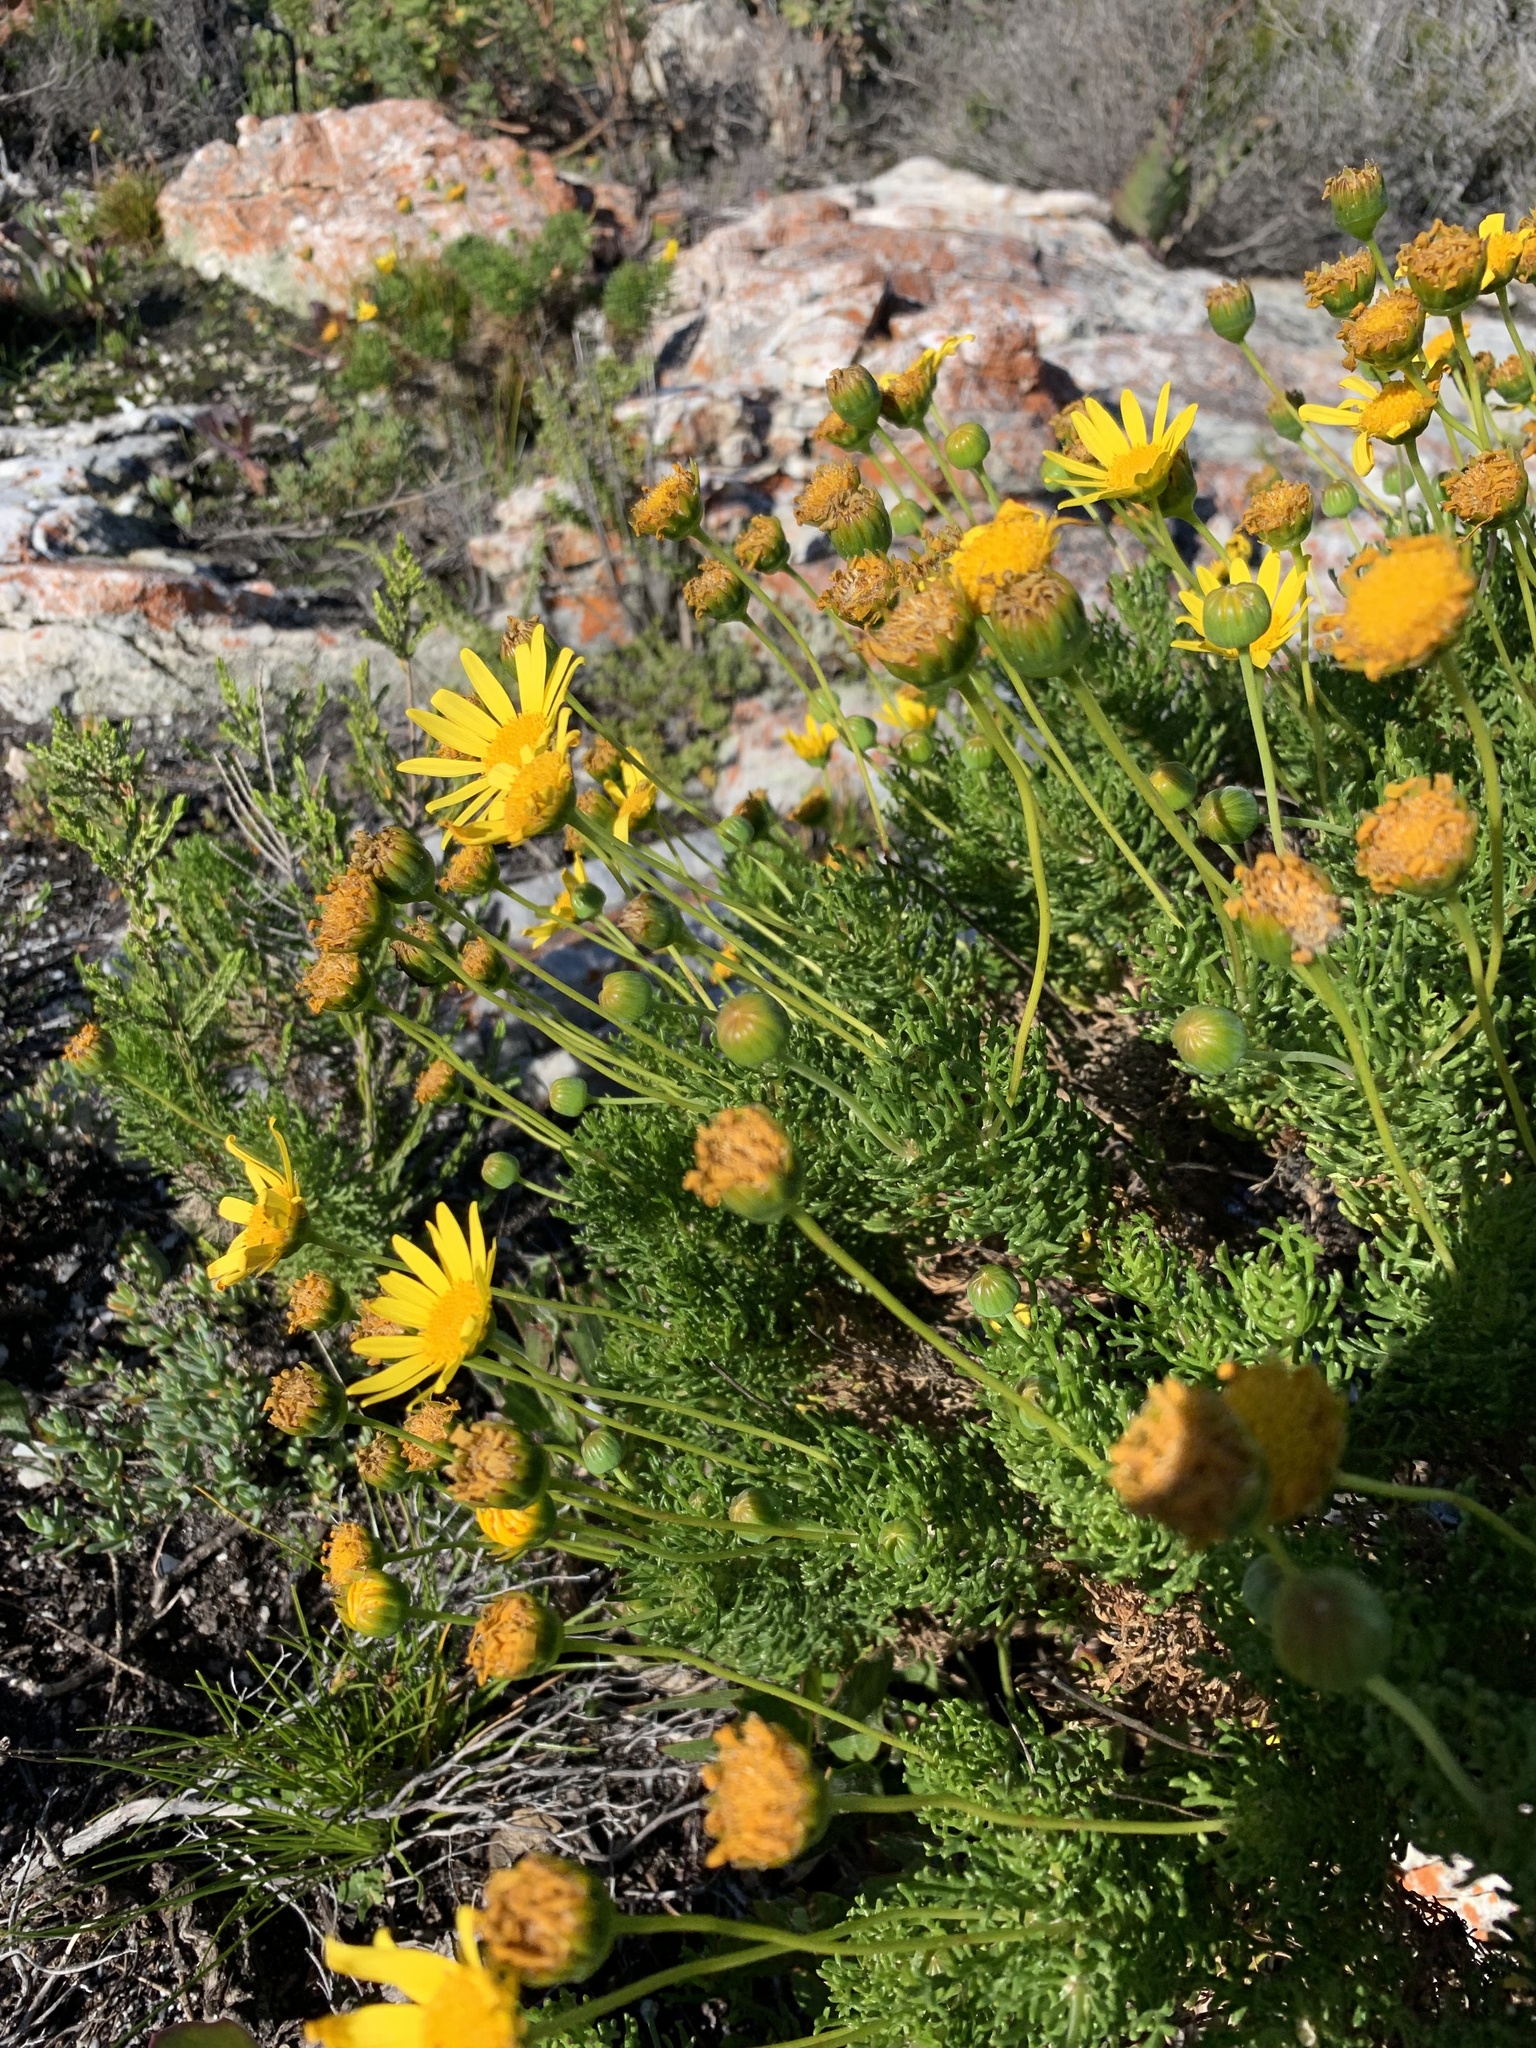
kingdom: Plantae
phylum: Tracheophyta
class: Magnoliopsida
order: Asterales
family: Asteraceae
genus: Euryops
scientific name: Euryops abrotanifolius
